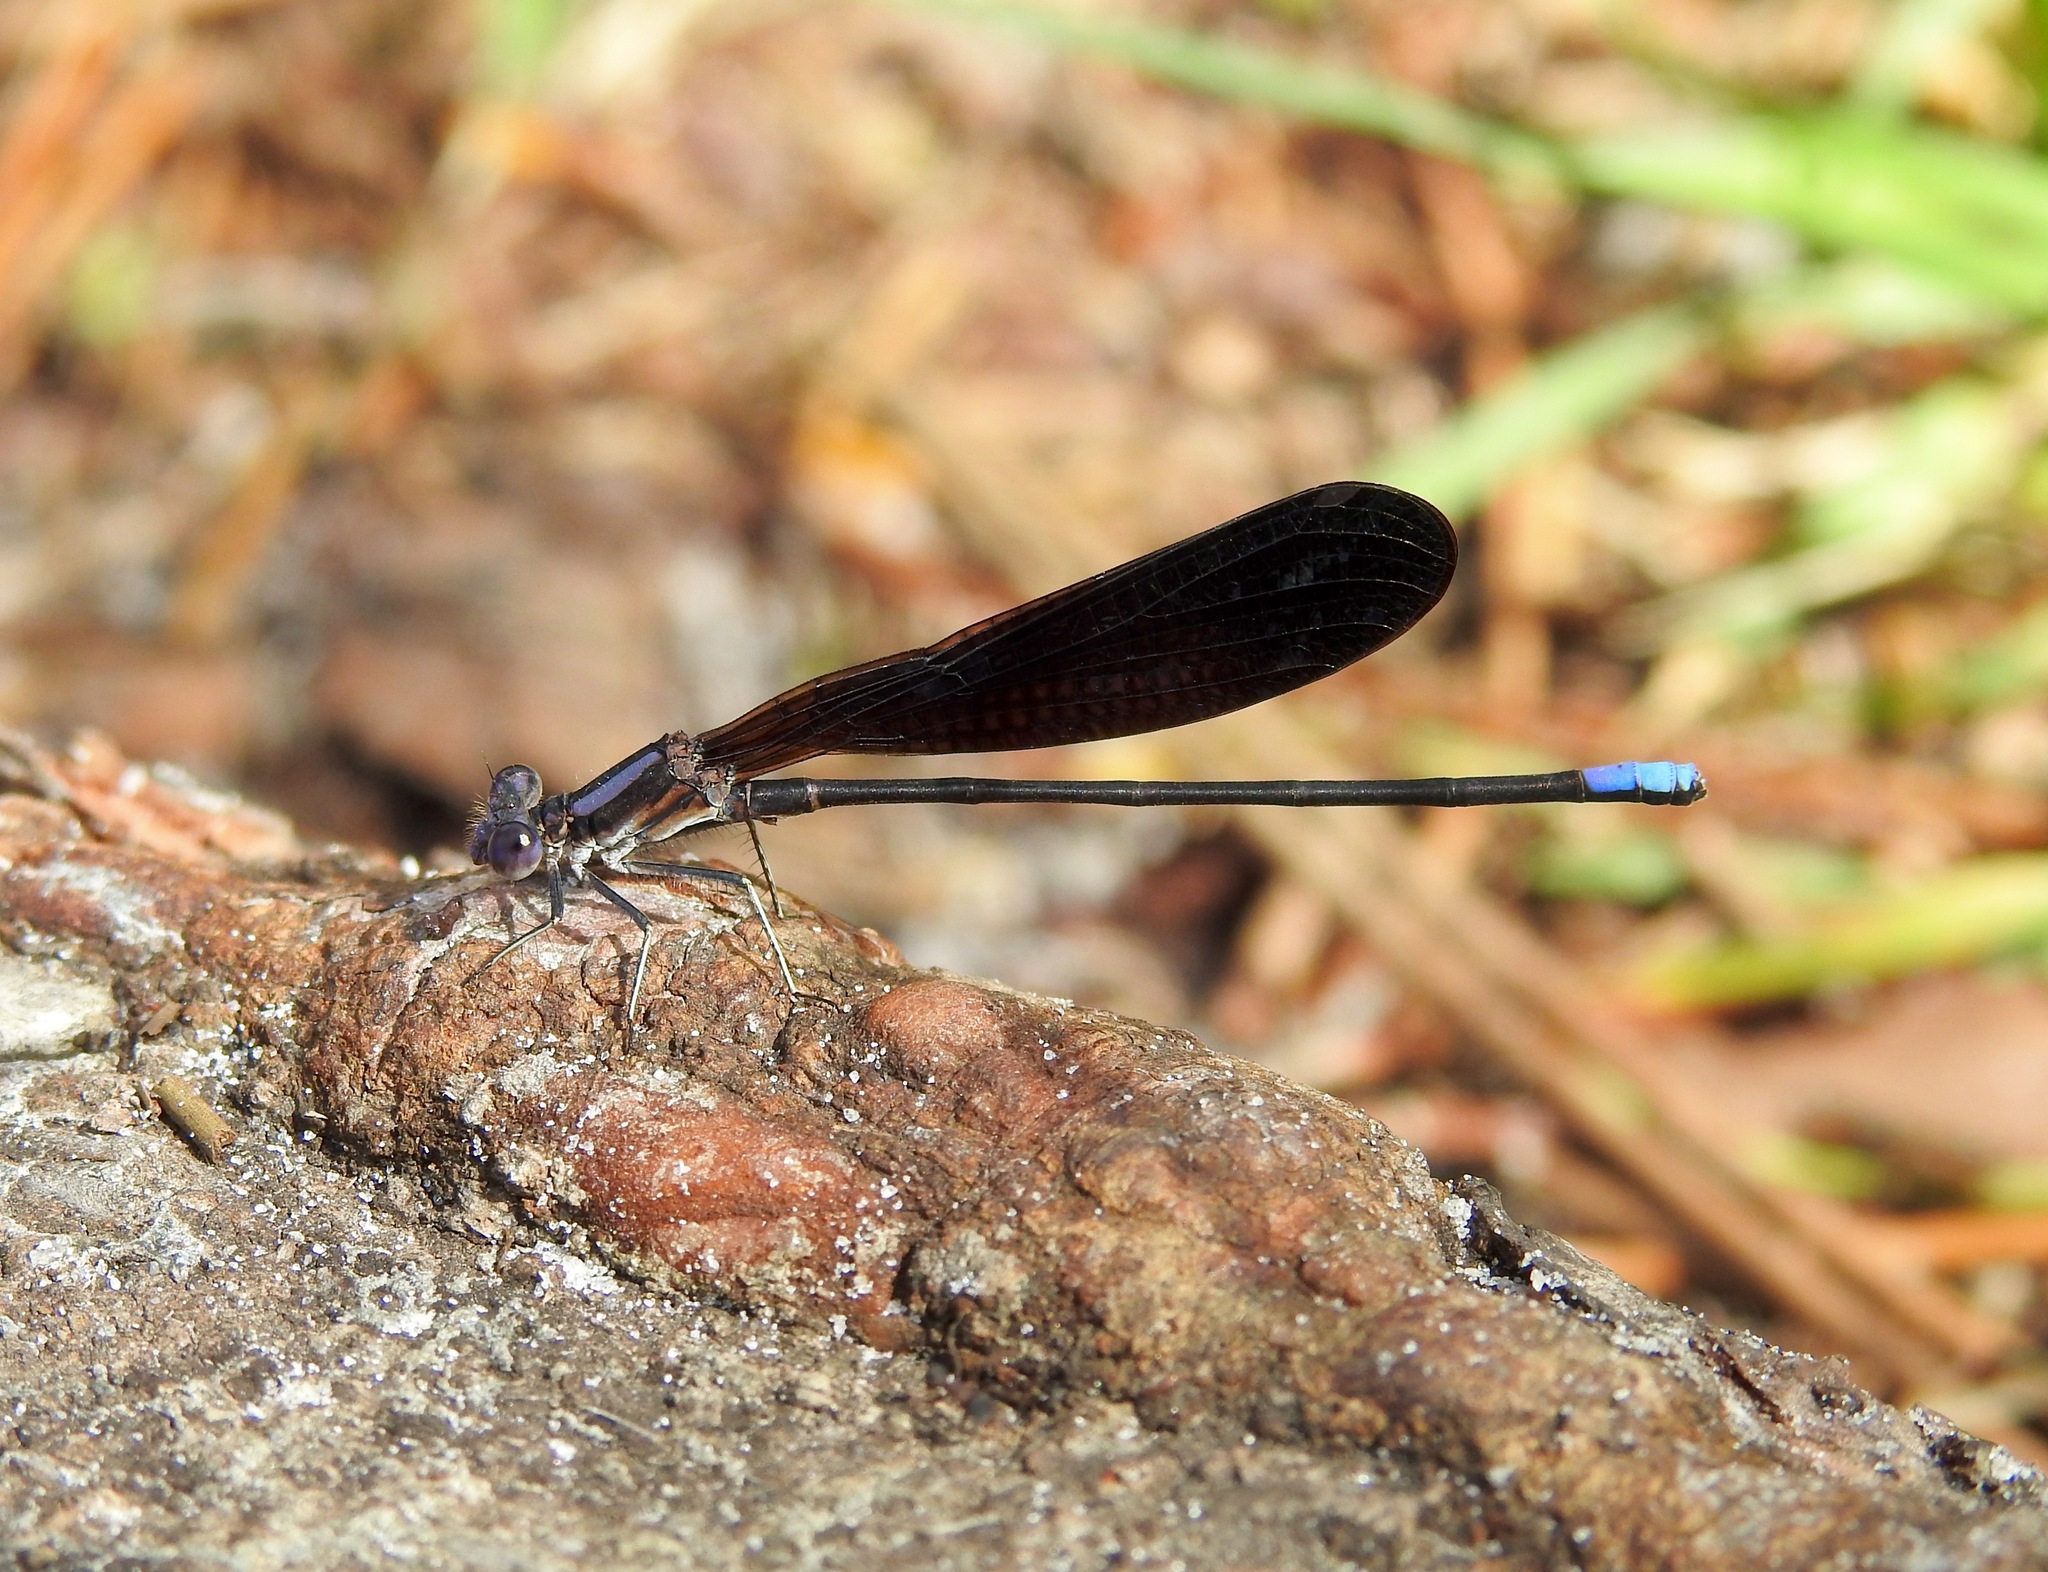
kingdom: Animalia
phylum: Arthropoda
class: Insecta
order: Odonata
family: Coenagrionidae
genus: Argia
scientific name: Argia fumipennis
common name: Variable dancer
